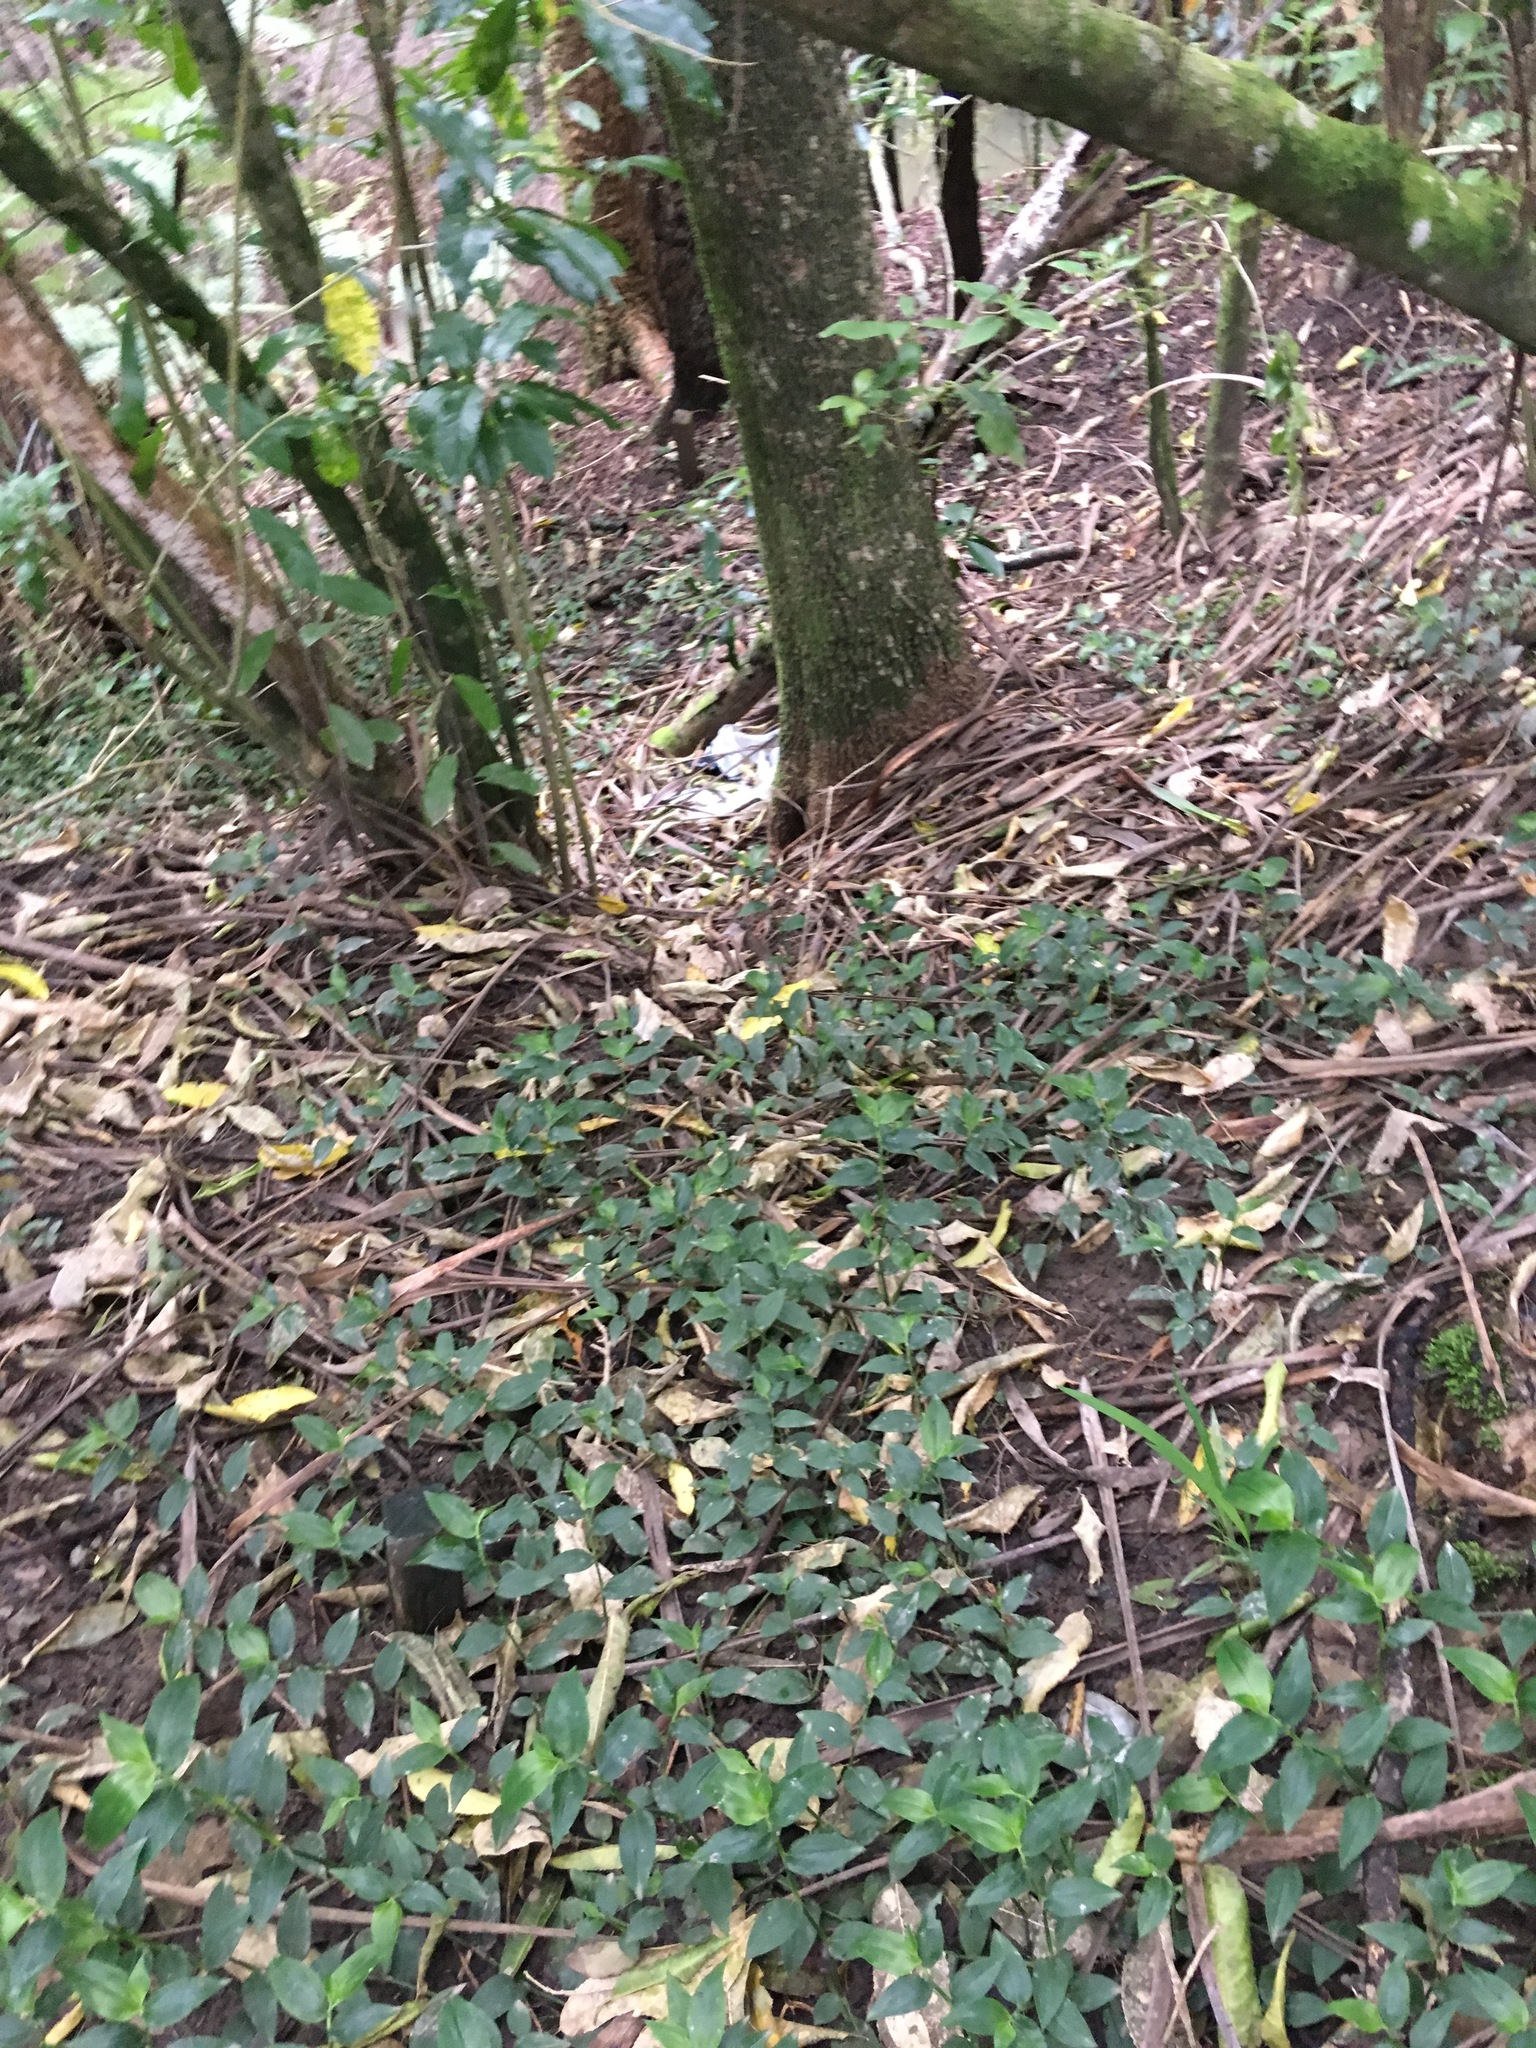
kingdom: Plantae
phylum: Tracheophyta
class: Liliopsida
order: Commelinales
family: Commelinaceae
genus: Tradescantia
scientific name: Tradescantia fluminensis
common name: Wandering-jew
